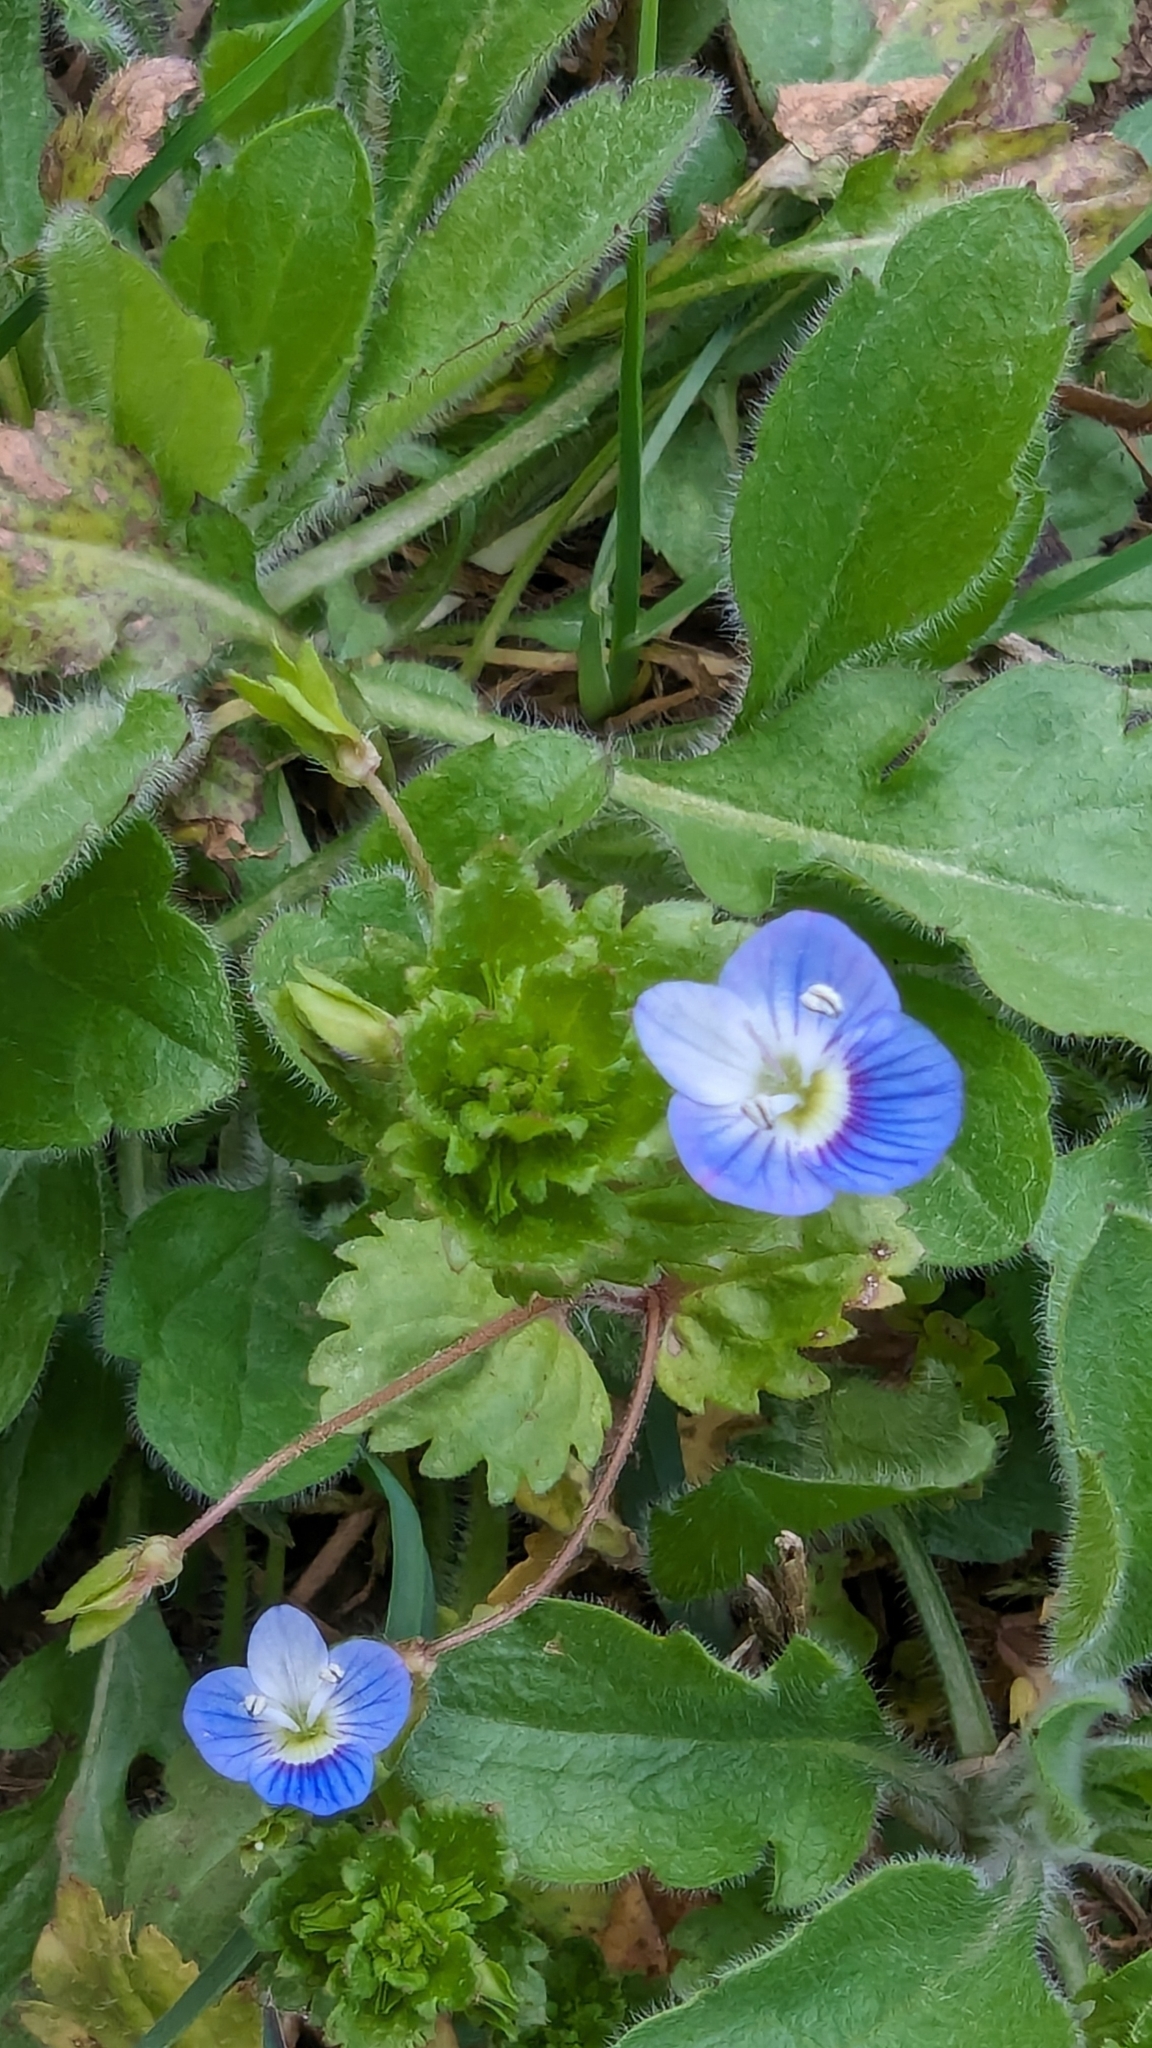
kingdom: Plantae
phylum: Tracheophyta
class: Magnoliopsida
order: Lamiales
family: Plantaginaceae
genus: Veronica
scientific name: Veronica persica
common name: Common field-speedwell
